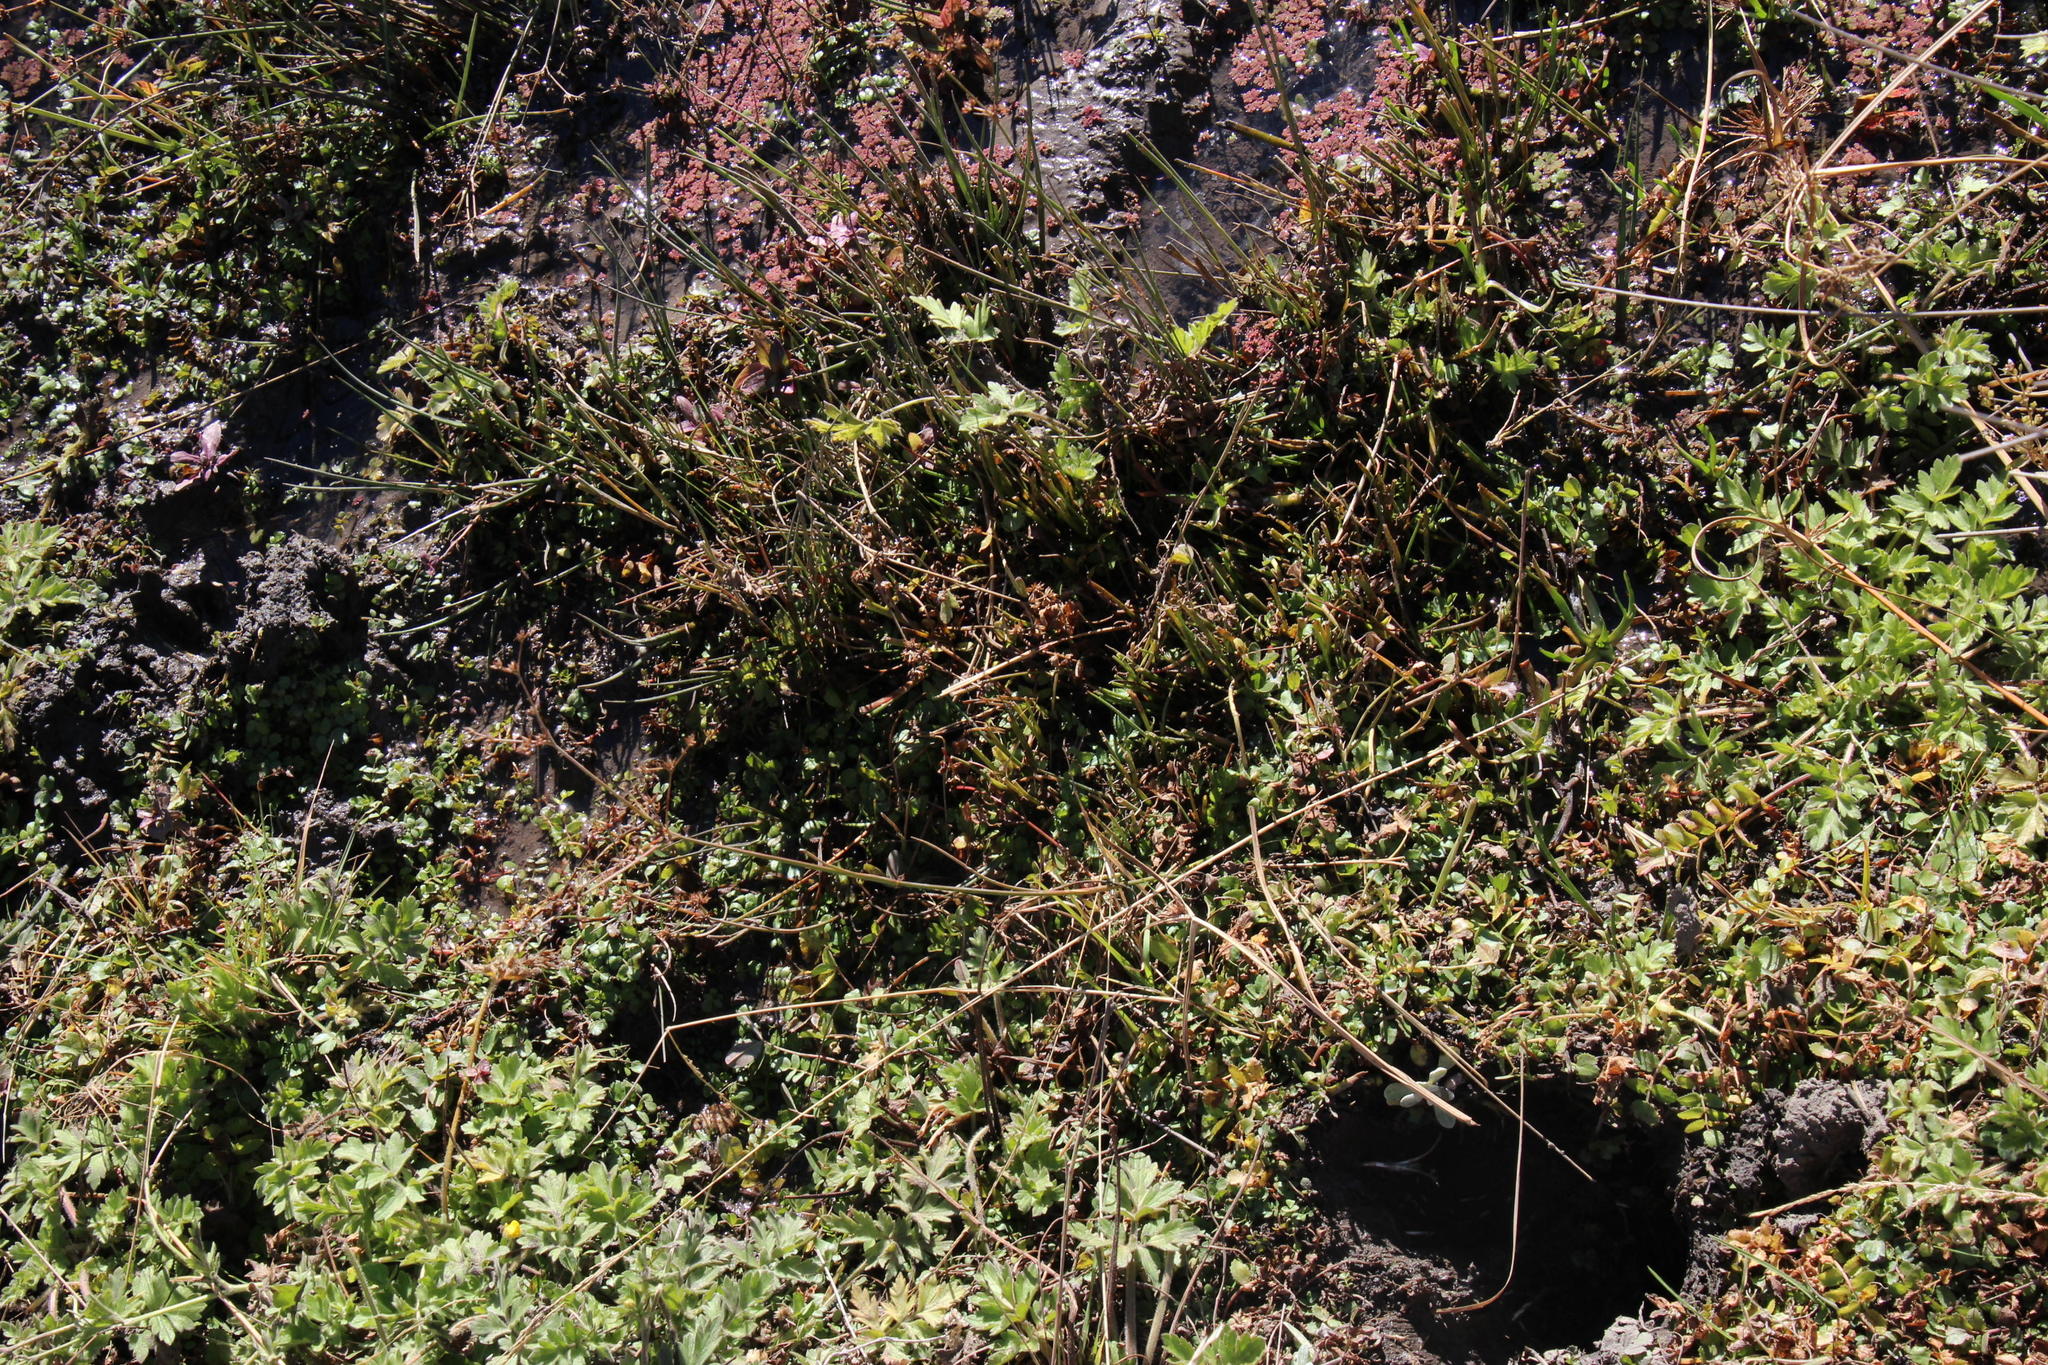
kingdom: Plantae
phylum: Tracheophyta
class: Liliopsida
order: Poales
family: Juncaceae
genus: Juncus
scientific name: Juncus exsertus
